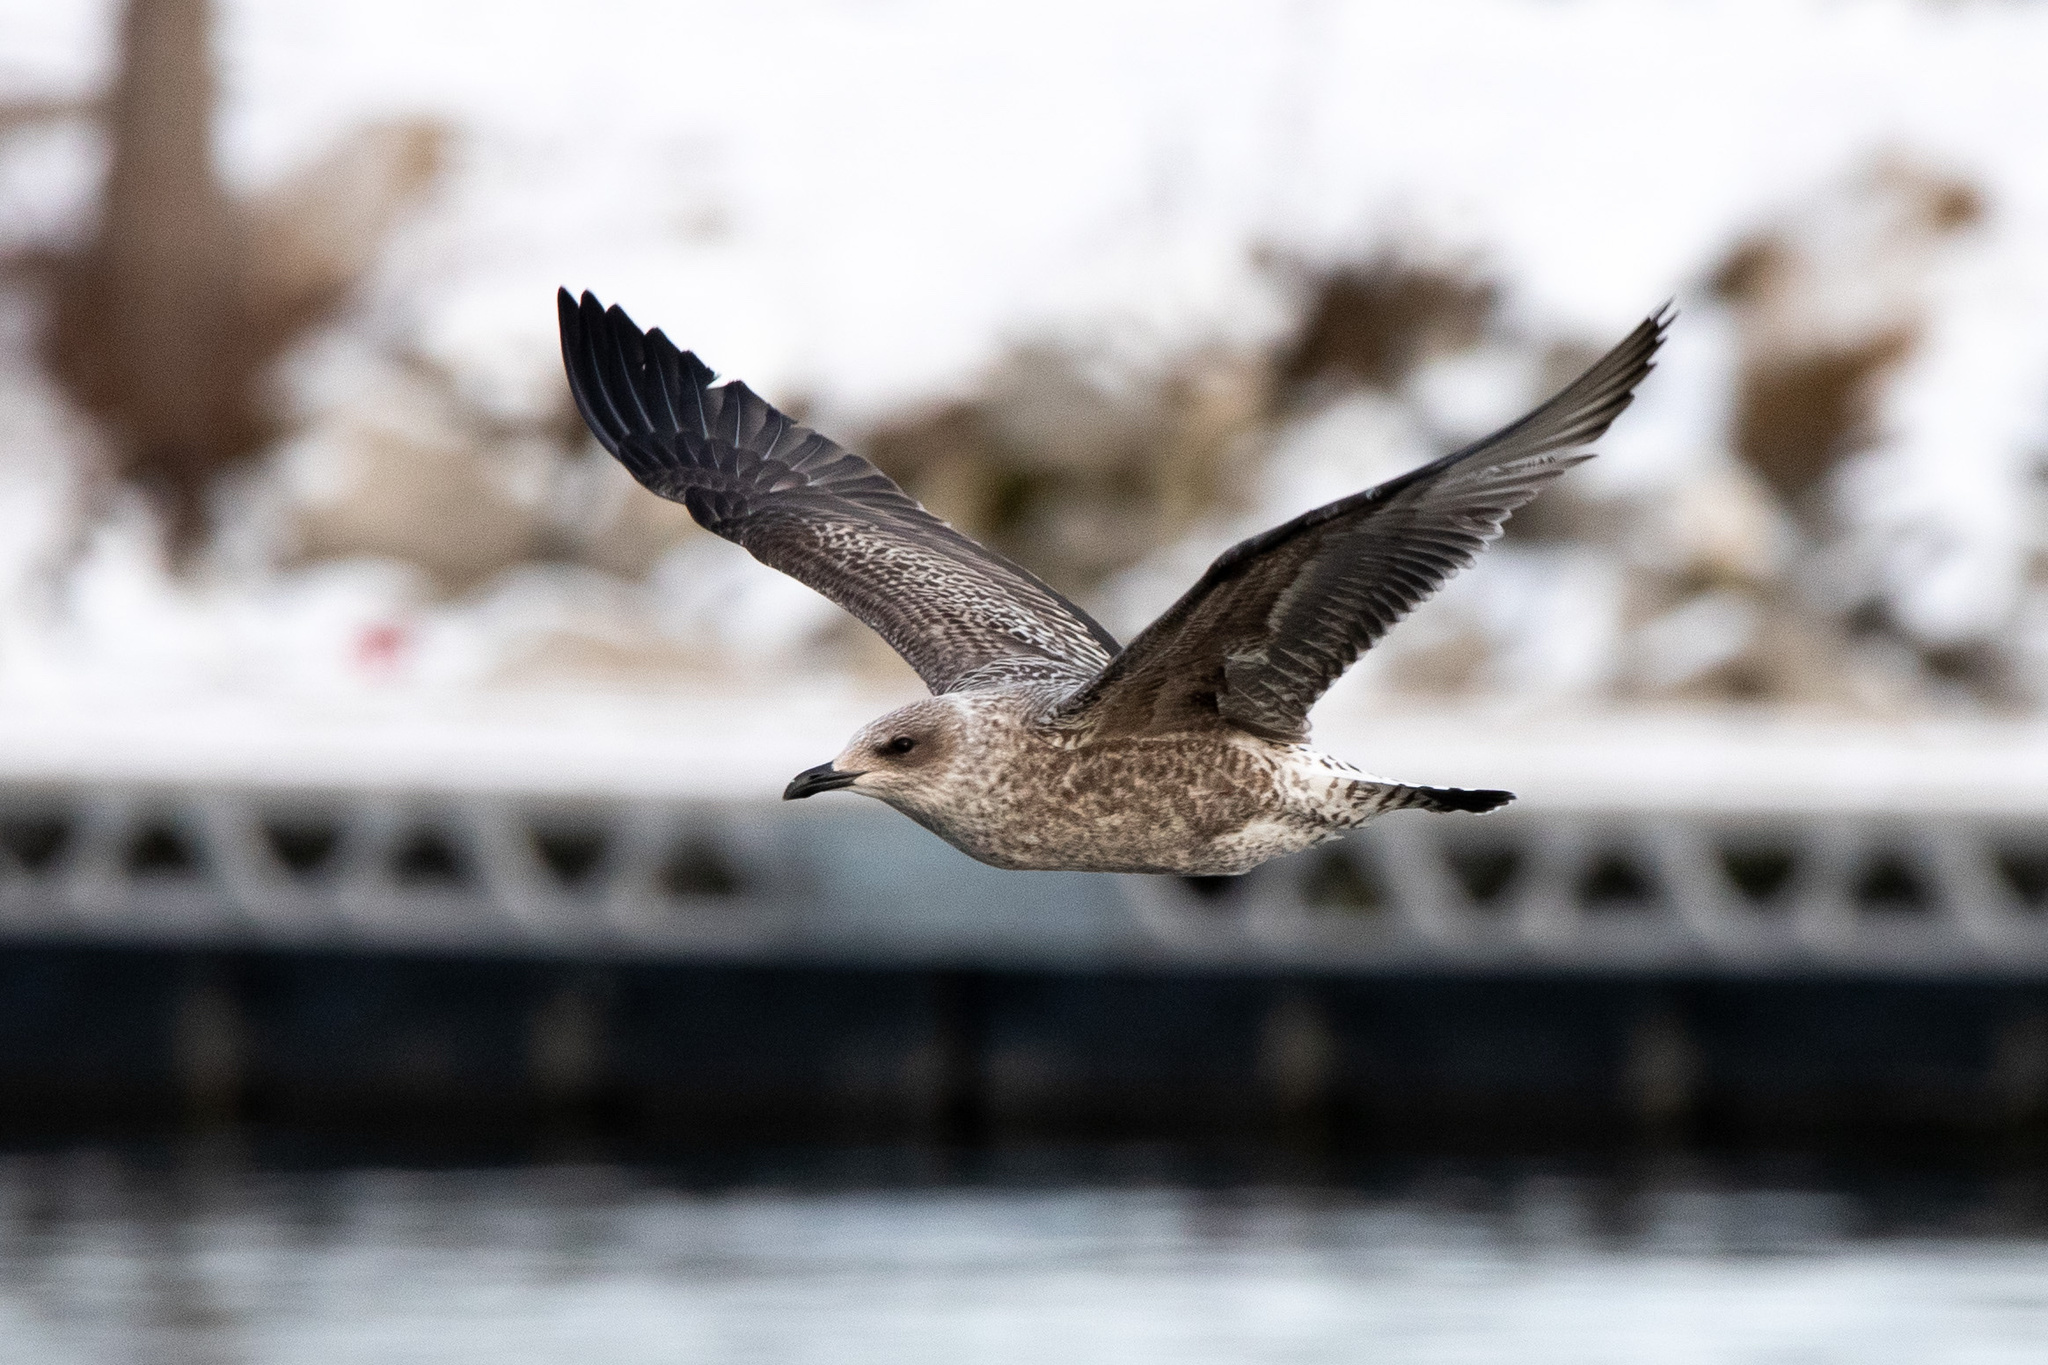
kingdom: Animalia
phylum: Chordata
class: Aves
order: Charadriiformes
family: Laridae
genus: Larus
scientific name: Larus fuscus
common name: Lesser black-backed gull
